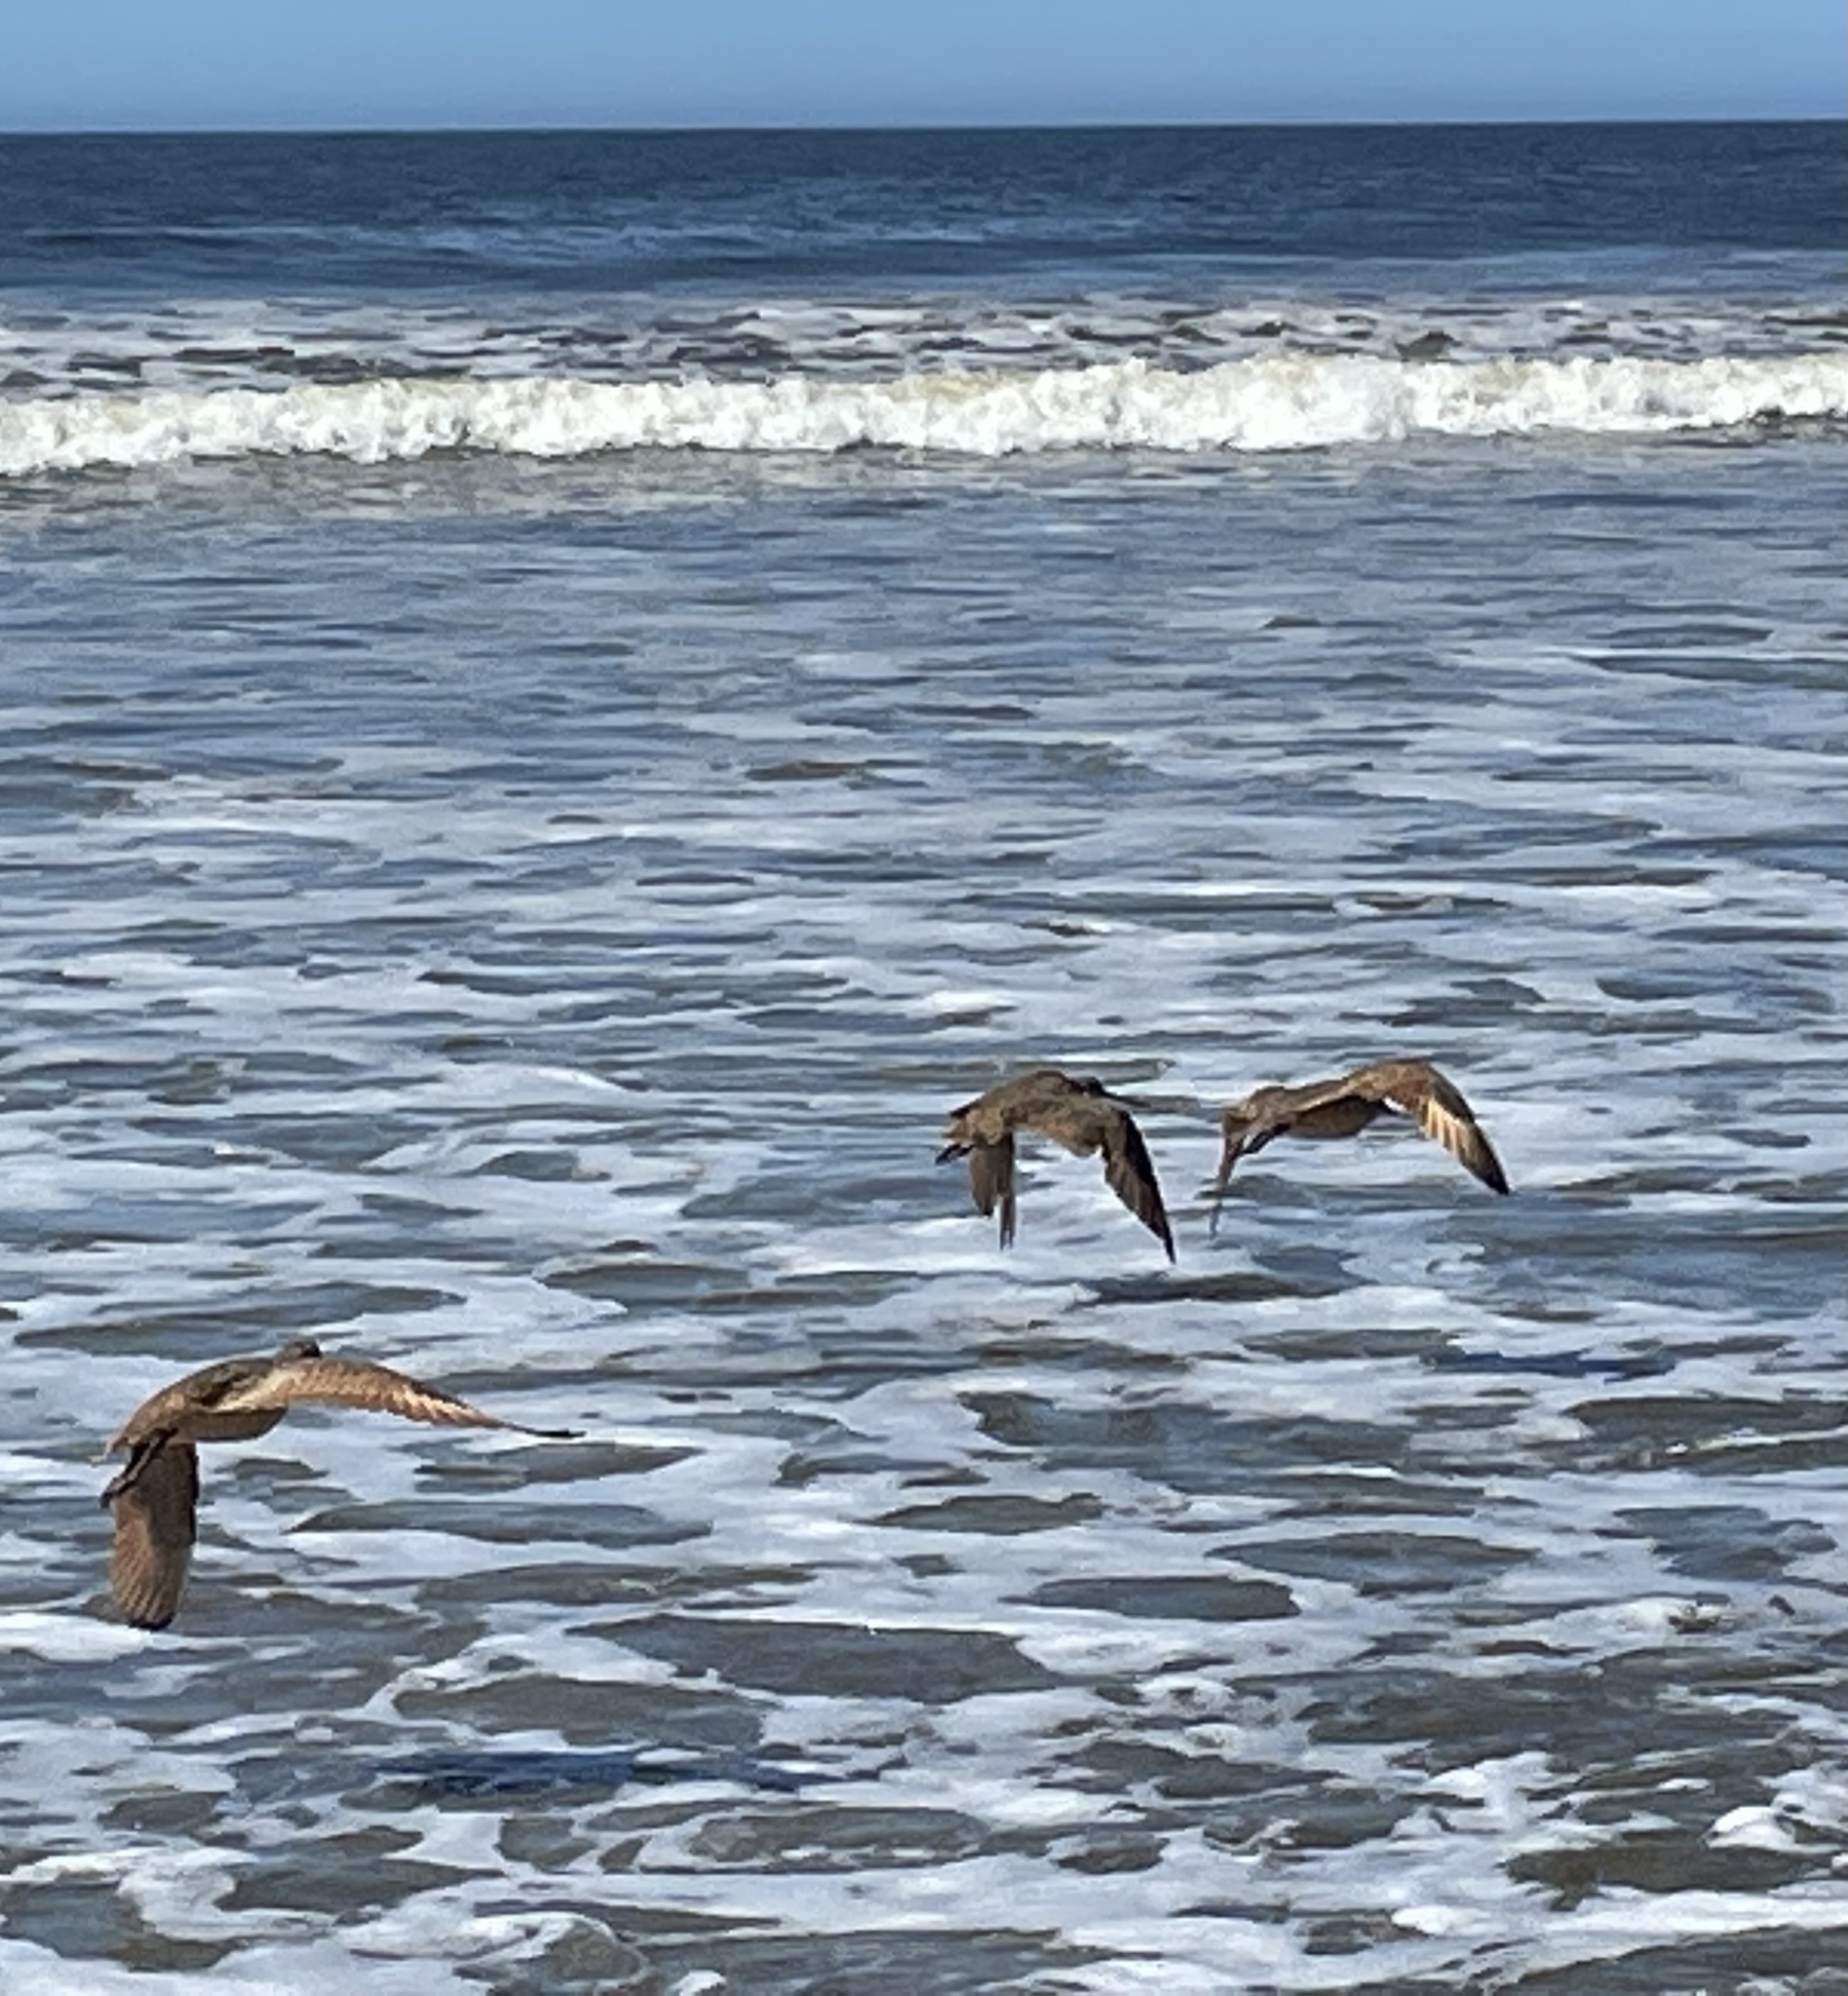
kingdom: Animalia
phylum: Chordata
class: Aves
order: Charadriiformes
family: Scolopacidae
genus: Limosa
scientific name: Limosa fedoa
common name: Marbled godwit
